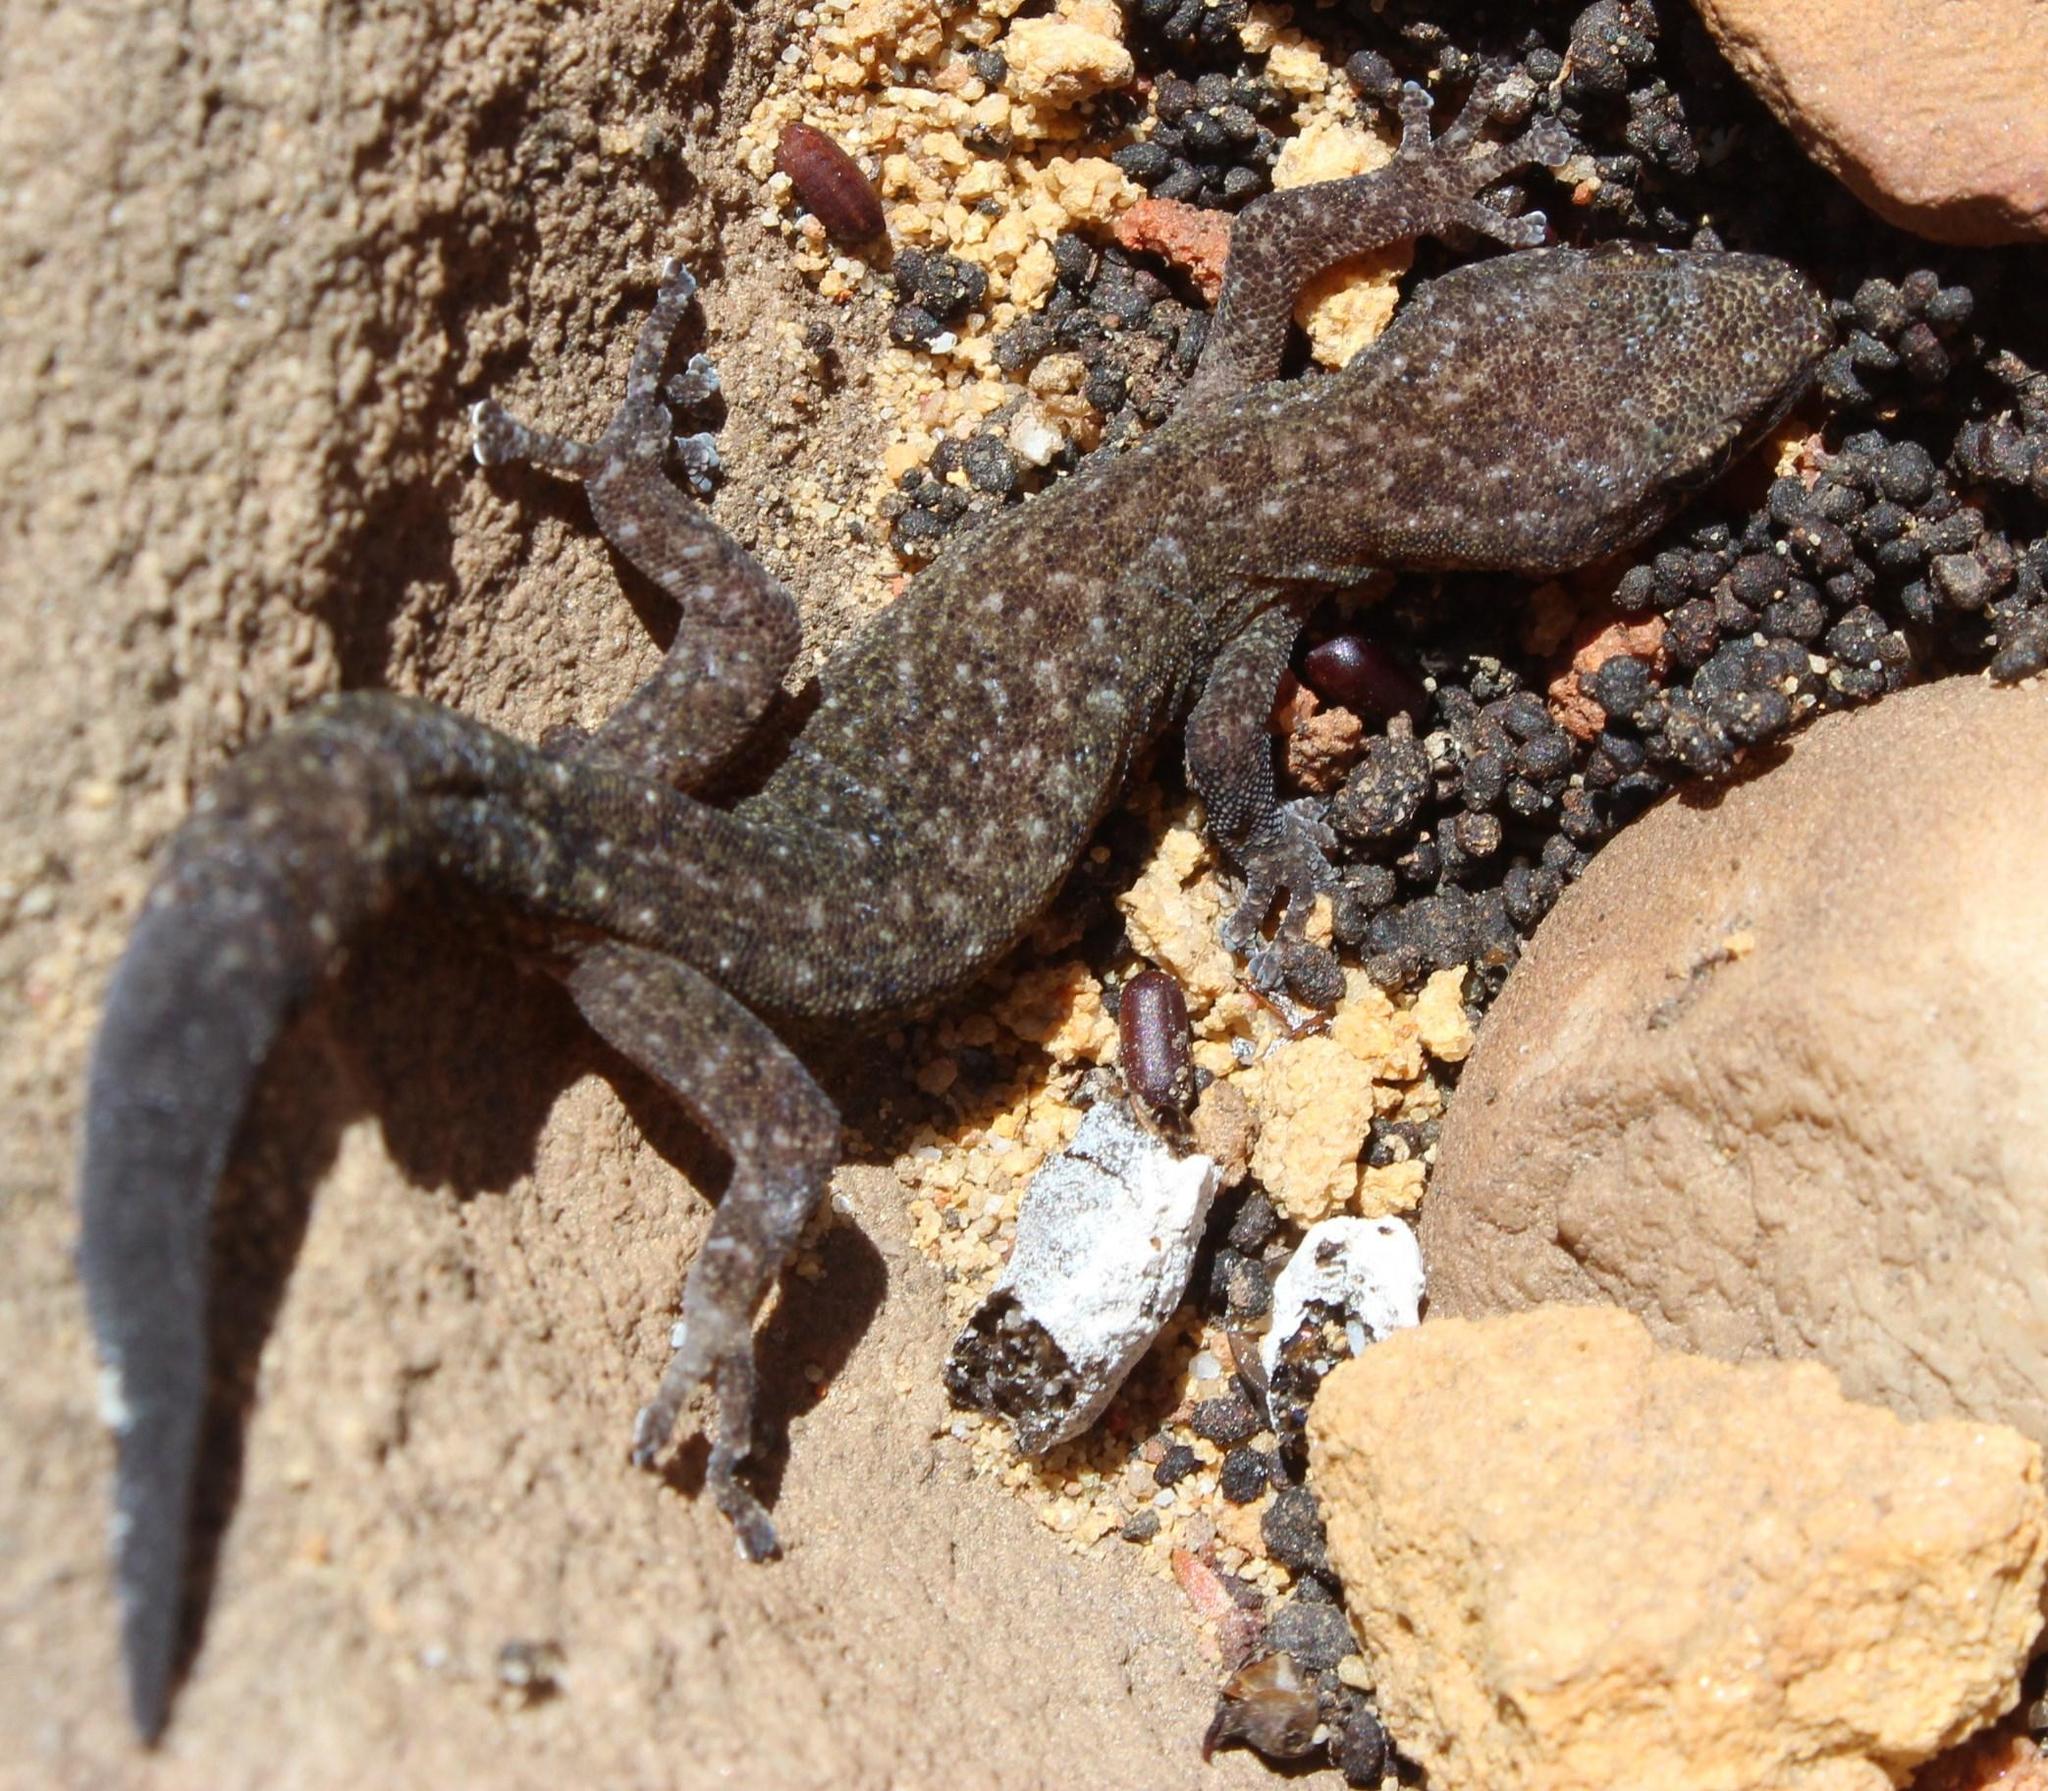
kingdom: Animalia
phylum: Chordata
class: Squamata
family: Gekkonidae
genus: Afrogecko
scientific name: Afrogecko porphyreus
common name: Marbled leaf-toed gecko
